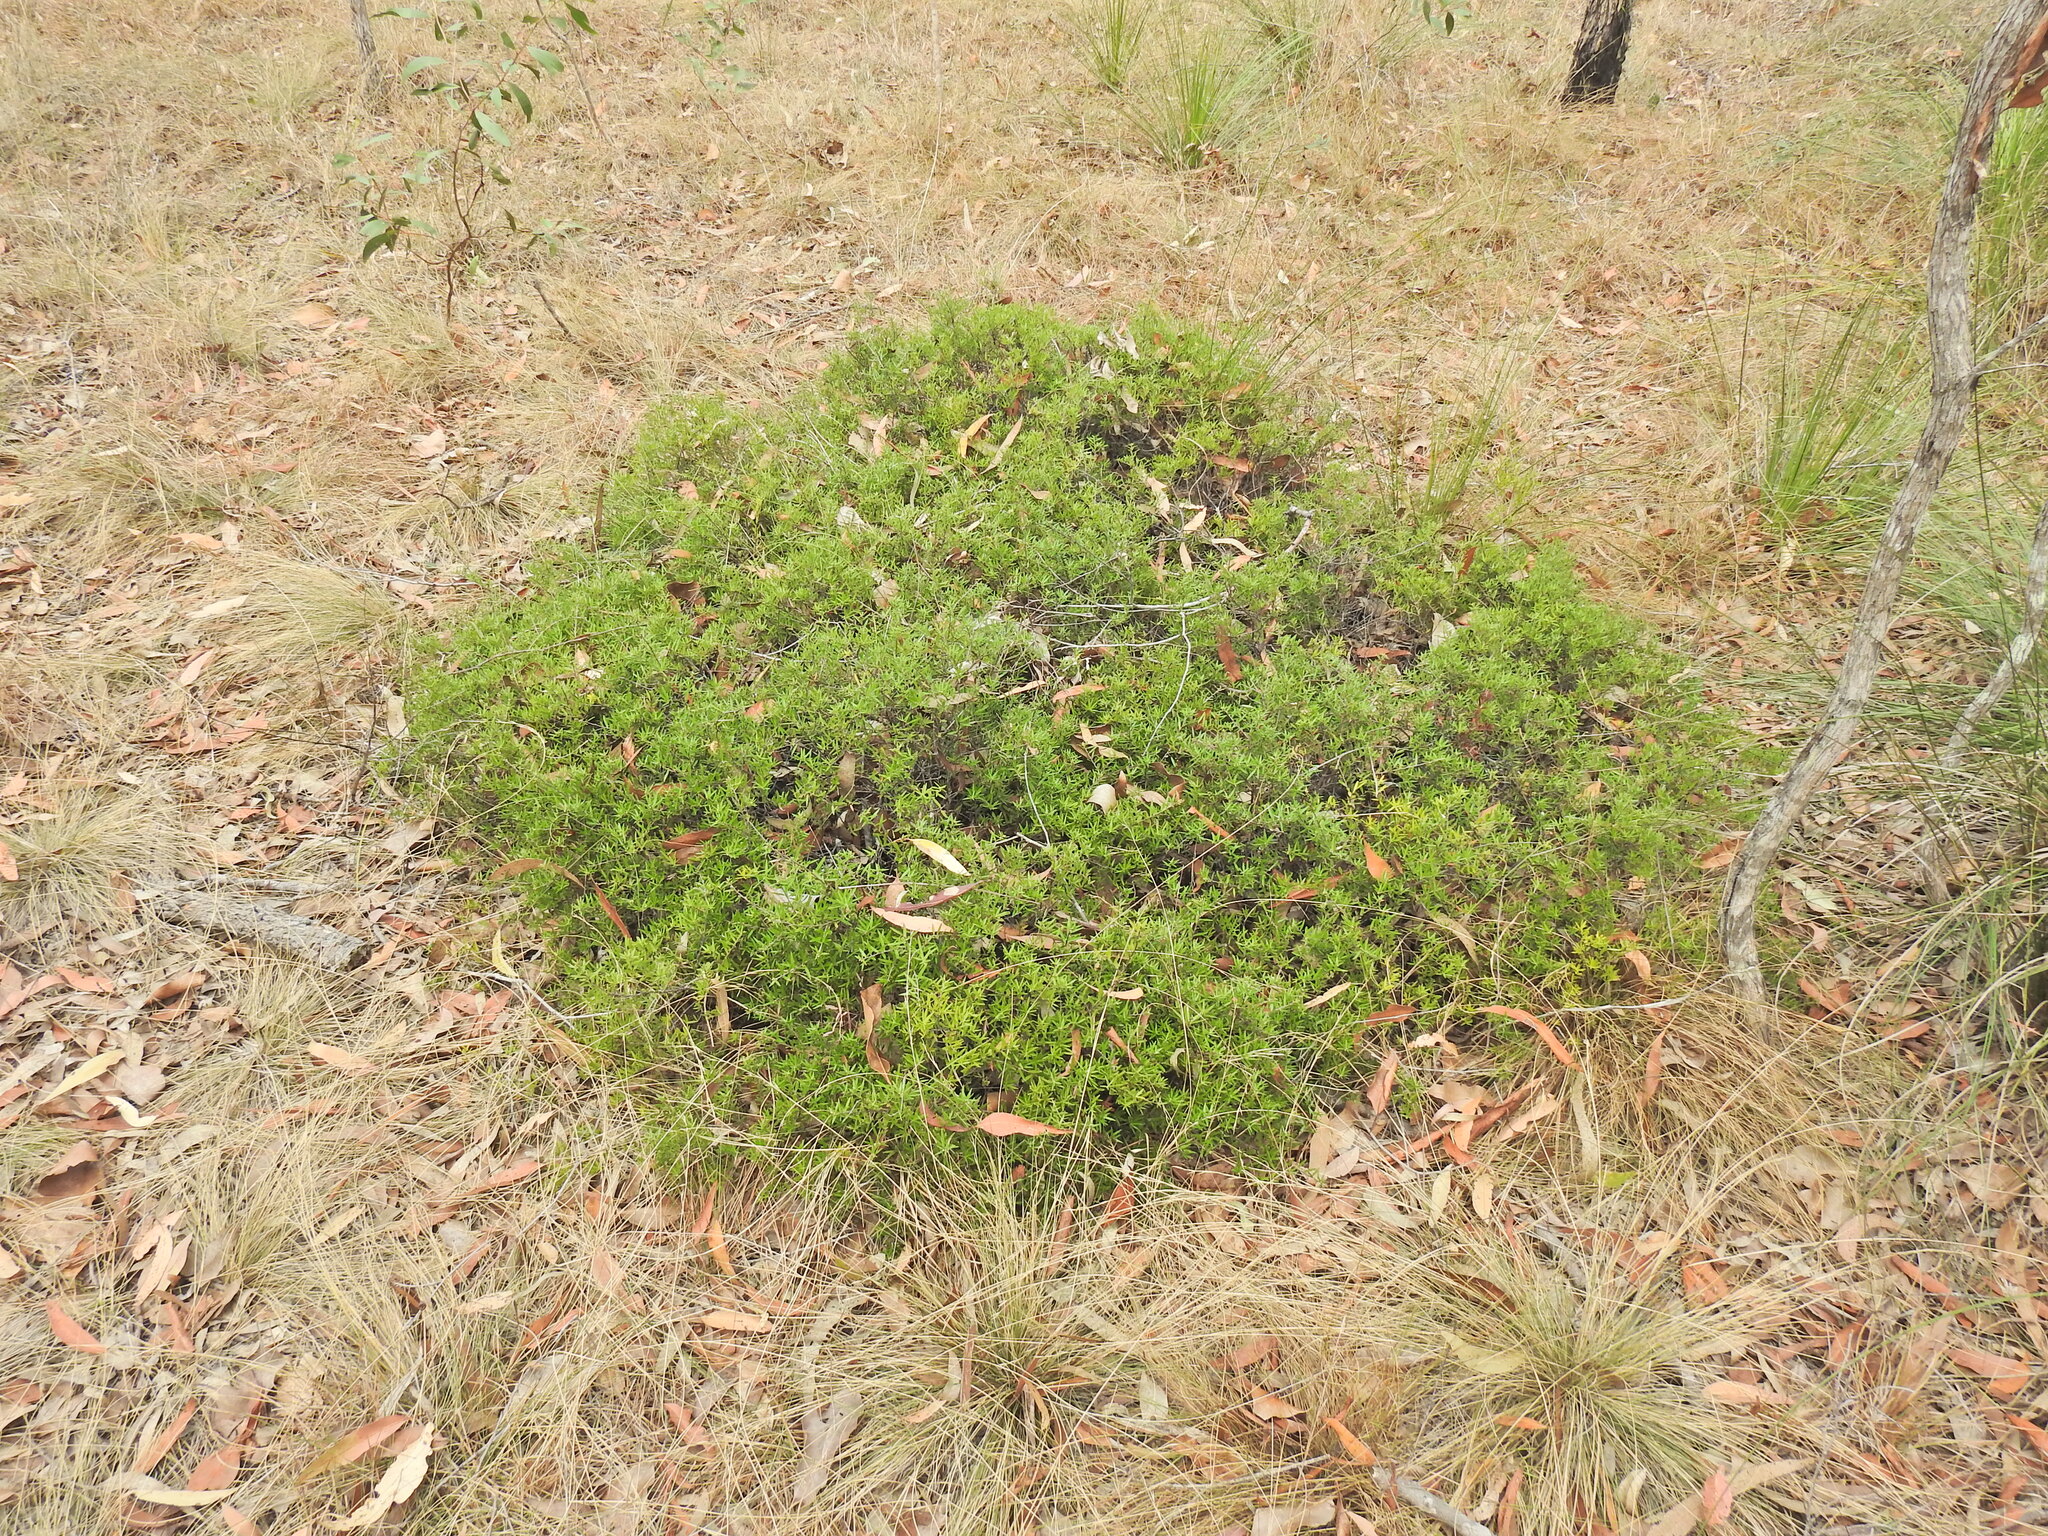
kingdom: Plantae
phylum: Tracheophyta
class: Magnoliopsida
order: Ericales
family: Ericaceae
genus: Acrotriche
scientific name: Acrotriche aggregata
